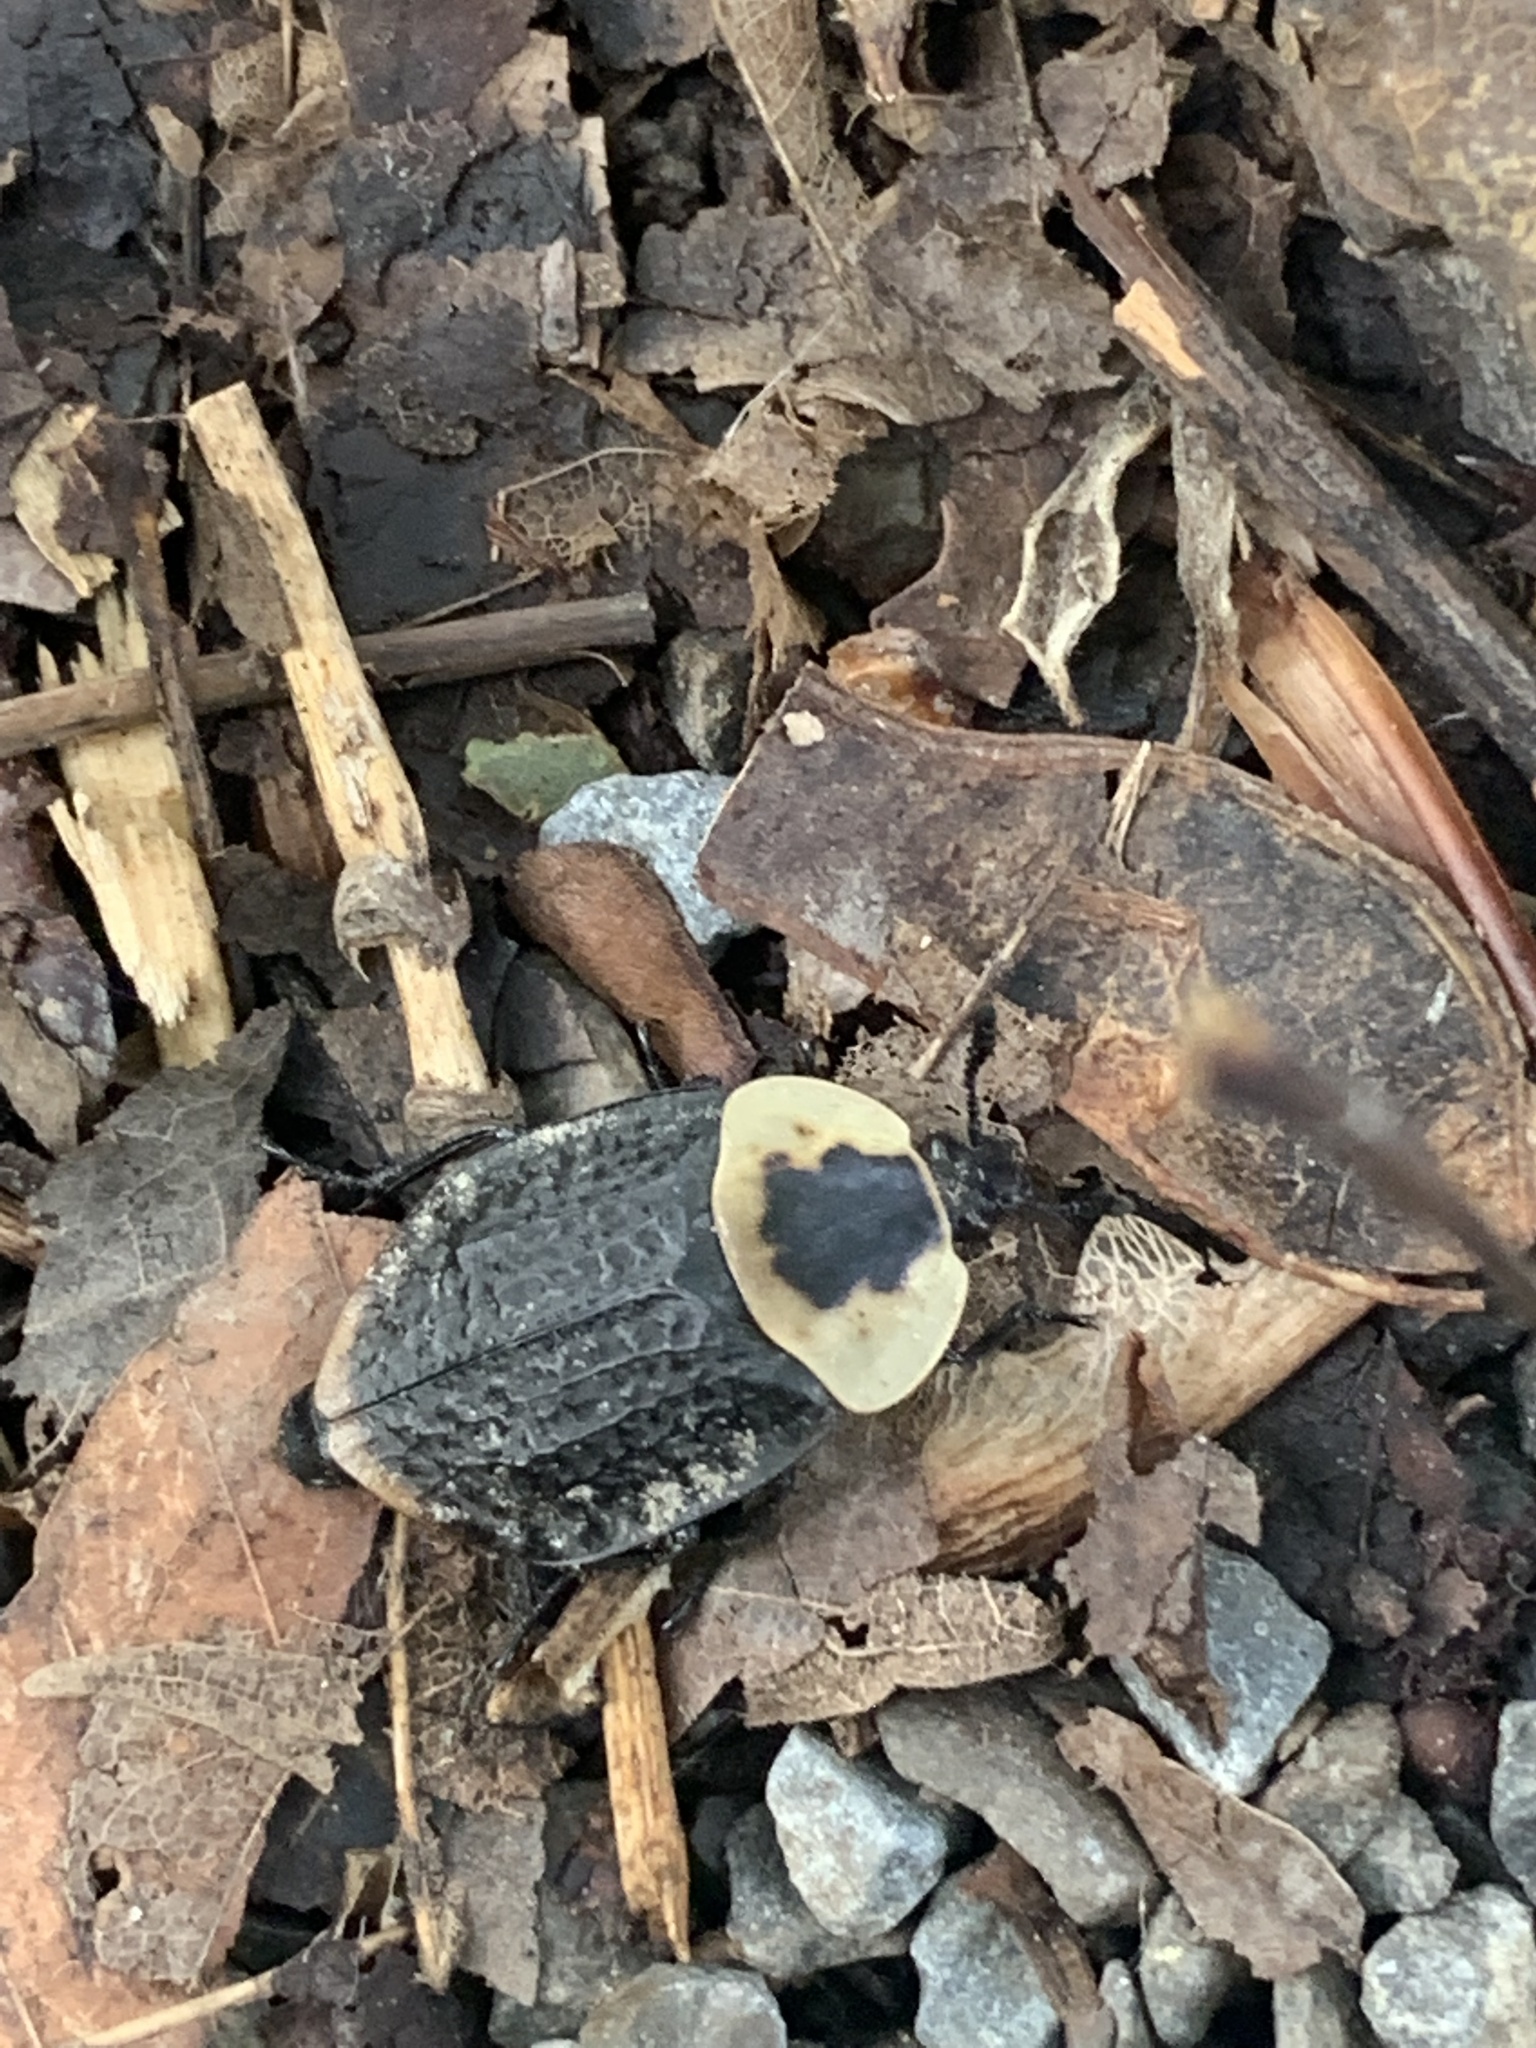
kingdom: Animalia
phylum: Arthropoda
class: Insecta
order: Coleoptera
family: Staphylinidae
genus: Necrophila
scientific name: Necrophila americana
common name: American carrion beetle
